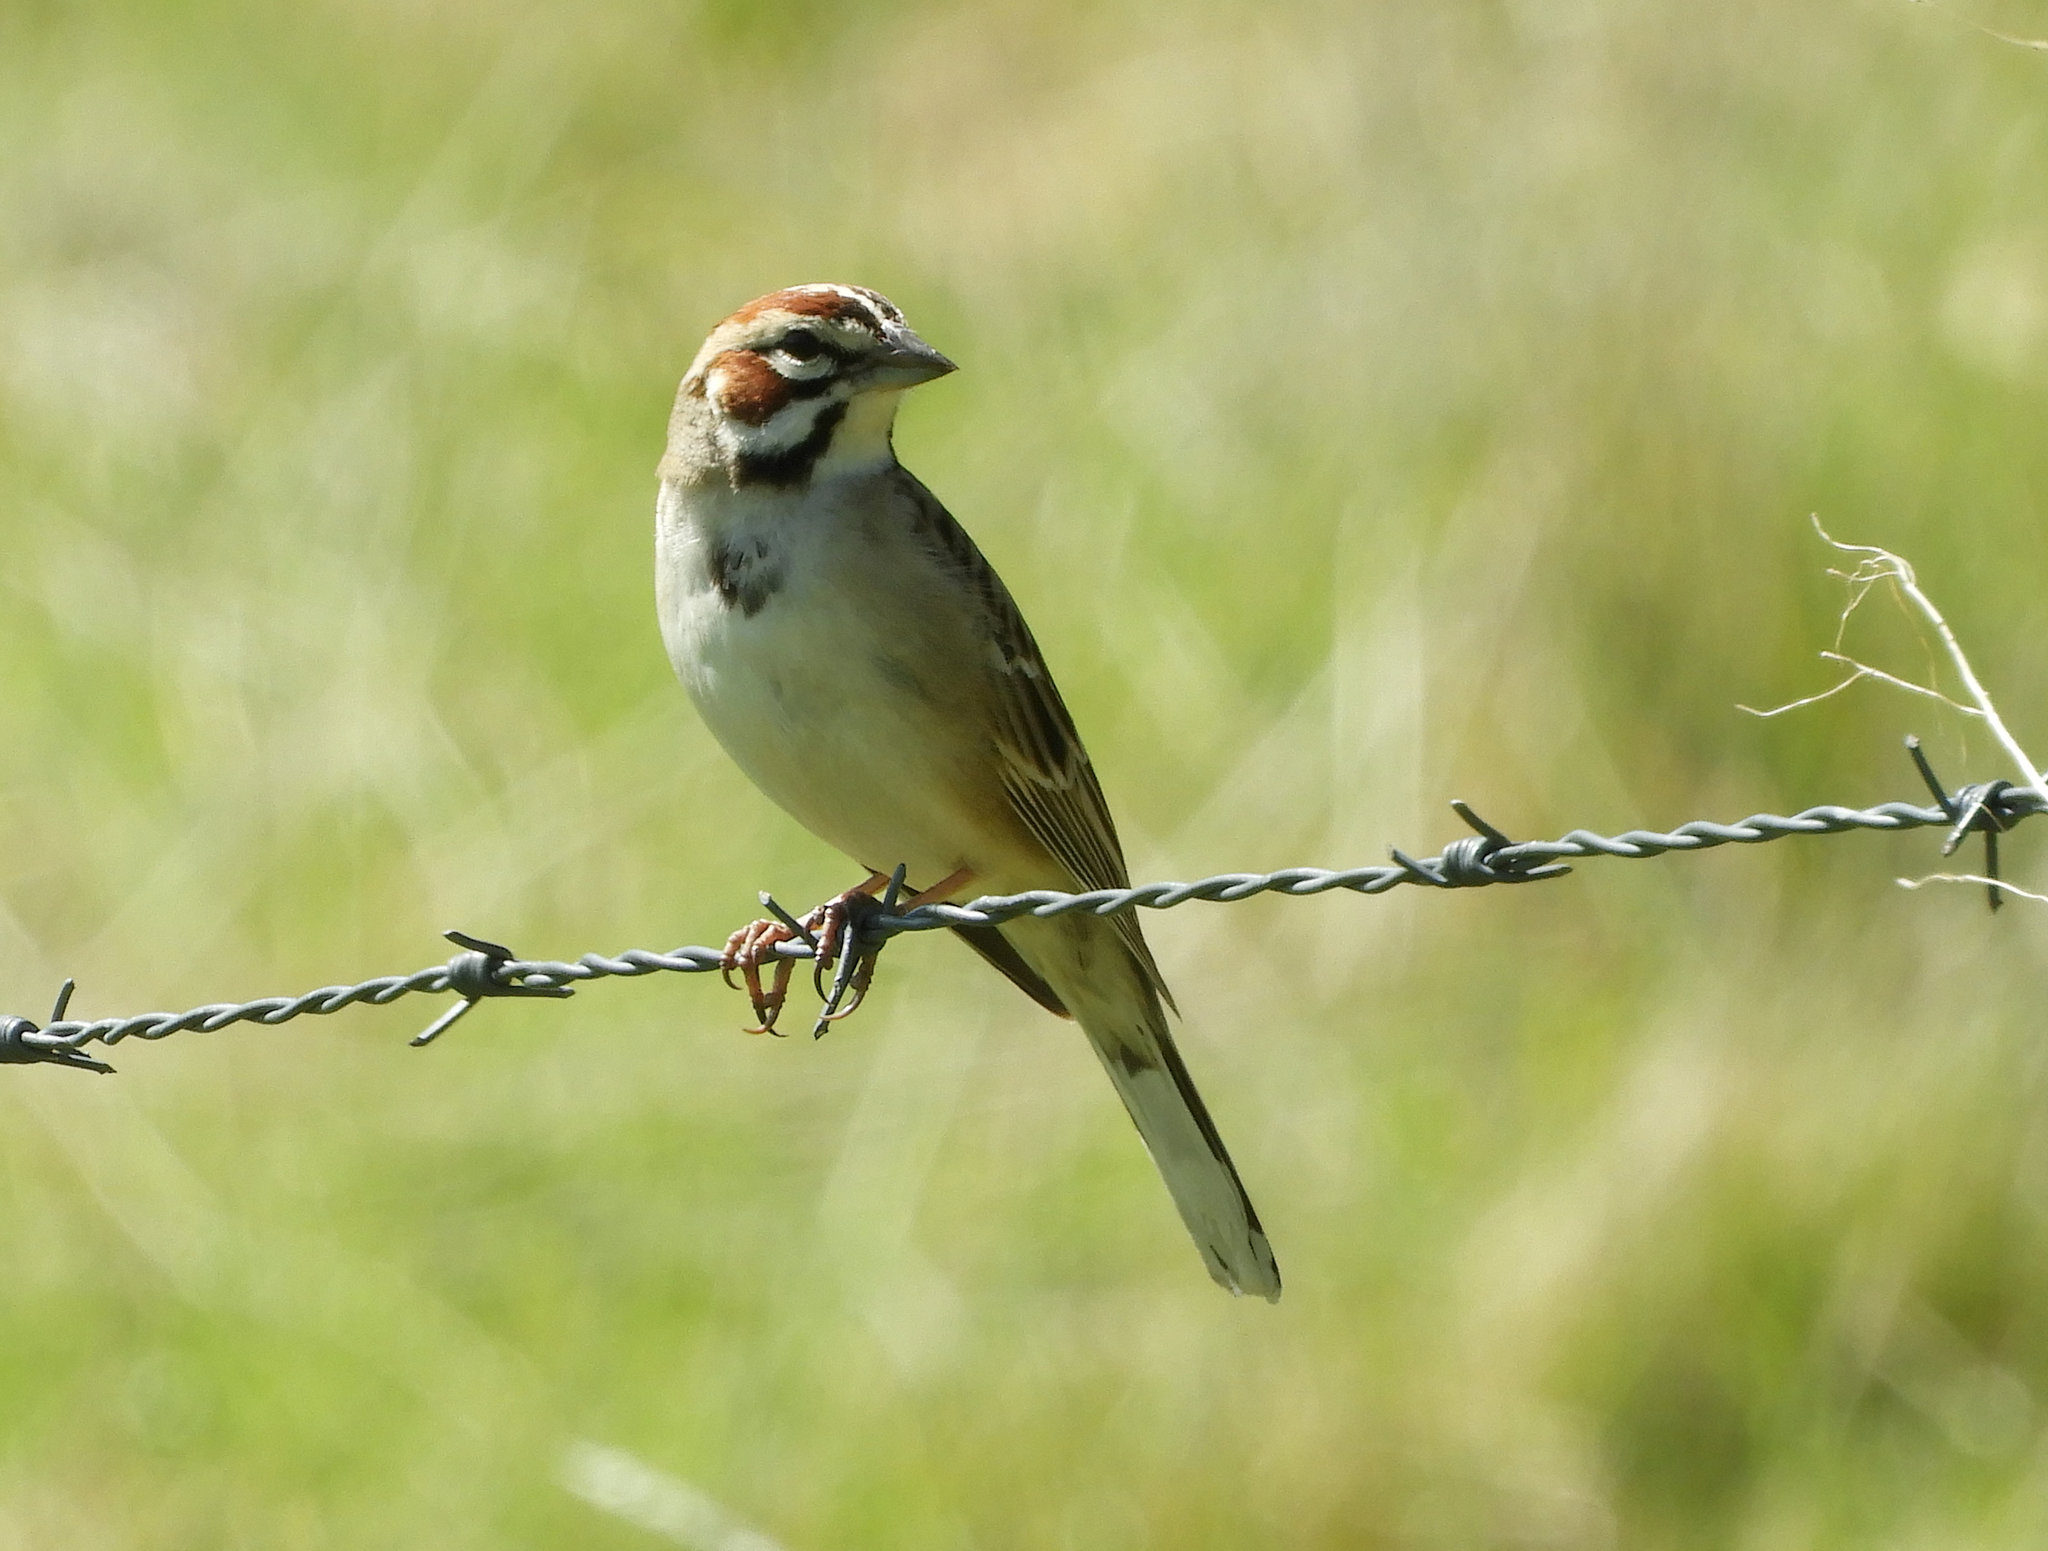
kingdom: Animalia
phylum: Chordata
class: Aves
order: Passeriformes
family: Passerellidae
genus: Chondestes
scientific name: Chondestes grammacus
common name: Lark sparrow
